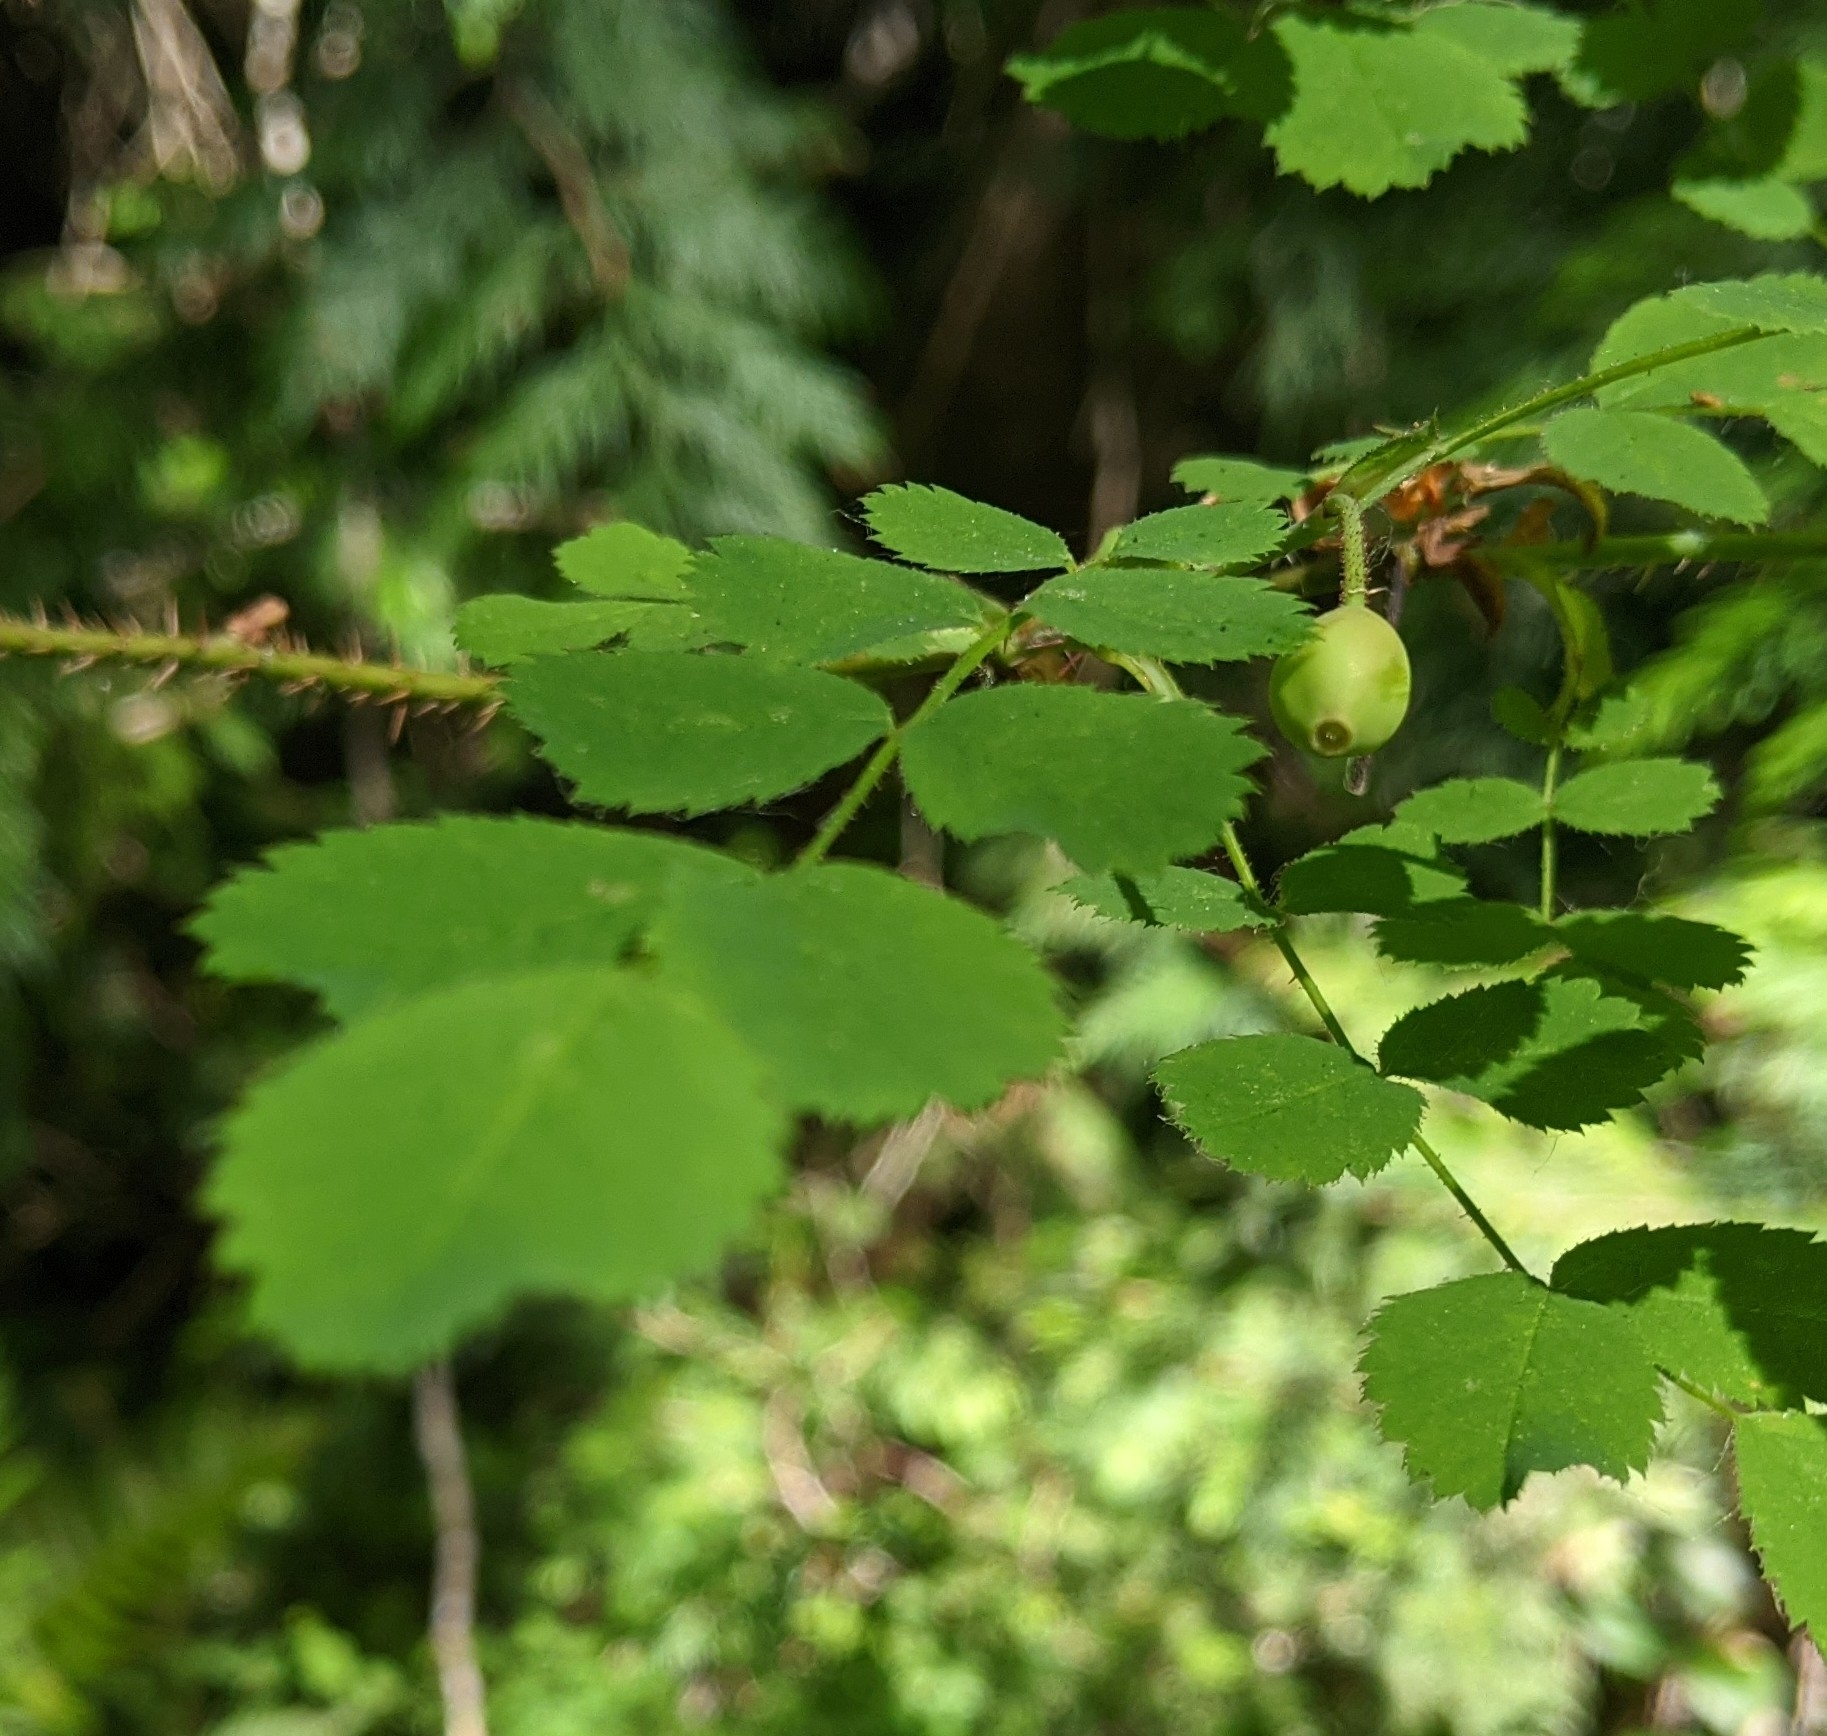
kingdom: Plantae
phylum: Tracheophyta
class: Magnoliopsida
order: Rosales
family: Rosaceae
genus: Rosa
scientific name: Rosa gymnocarpa
